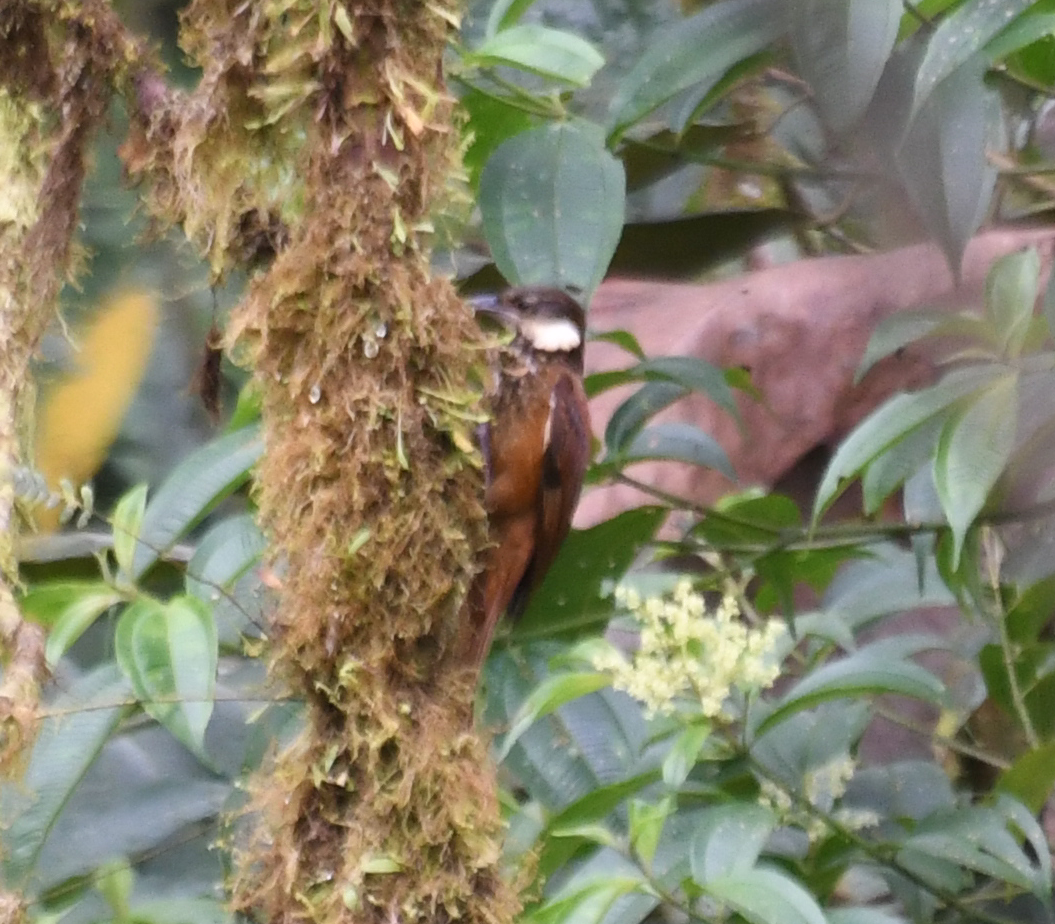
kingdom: Animalia
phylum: Chordata
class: Aves
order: Passeriformes
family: Furnariidae
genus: Pseudocolaptes
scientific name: Pseudocolaptes johnsoni
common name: Pacific tuftedcheek
